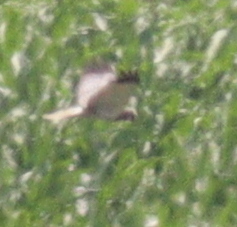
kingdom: Animalia
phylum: Chordata
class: Aves
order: Accipitriformes
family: Accipitridae
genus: Circus
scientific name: Circus aeruginosus
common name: Western marsh harrier
